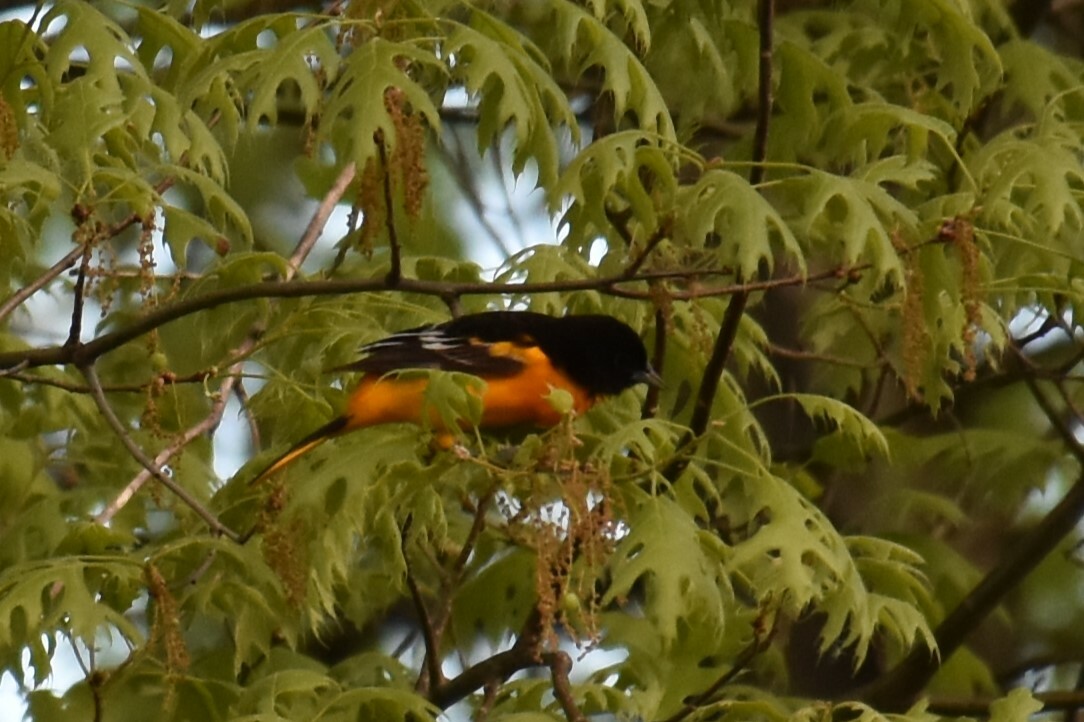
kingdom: Animalia
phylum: Chordata
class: Aves
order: Passeriformes
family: Icteridae
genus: Icterus
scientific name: Icterus galbula
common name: Baltimore oriole
